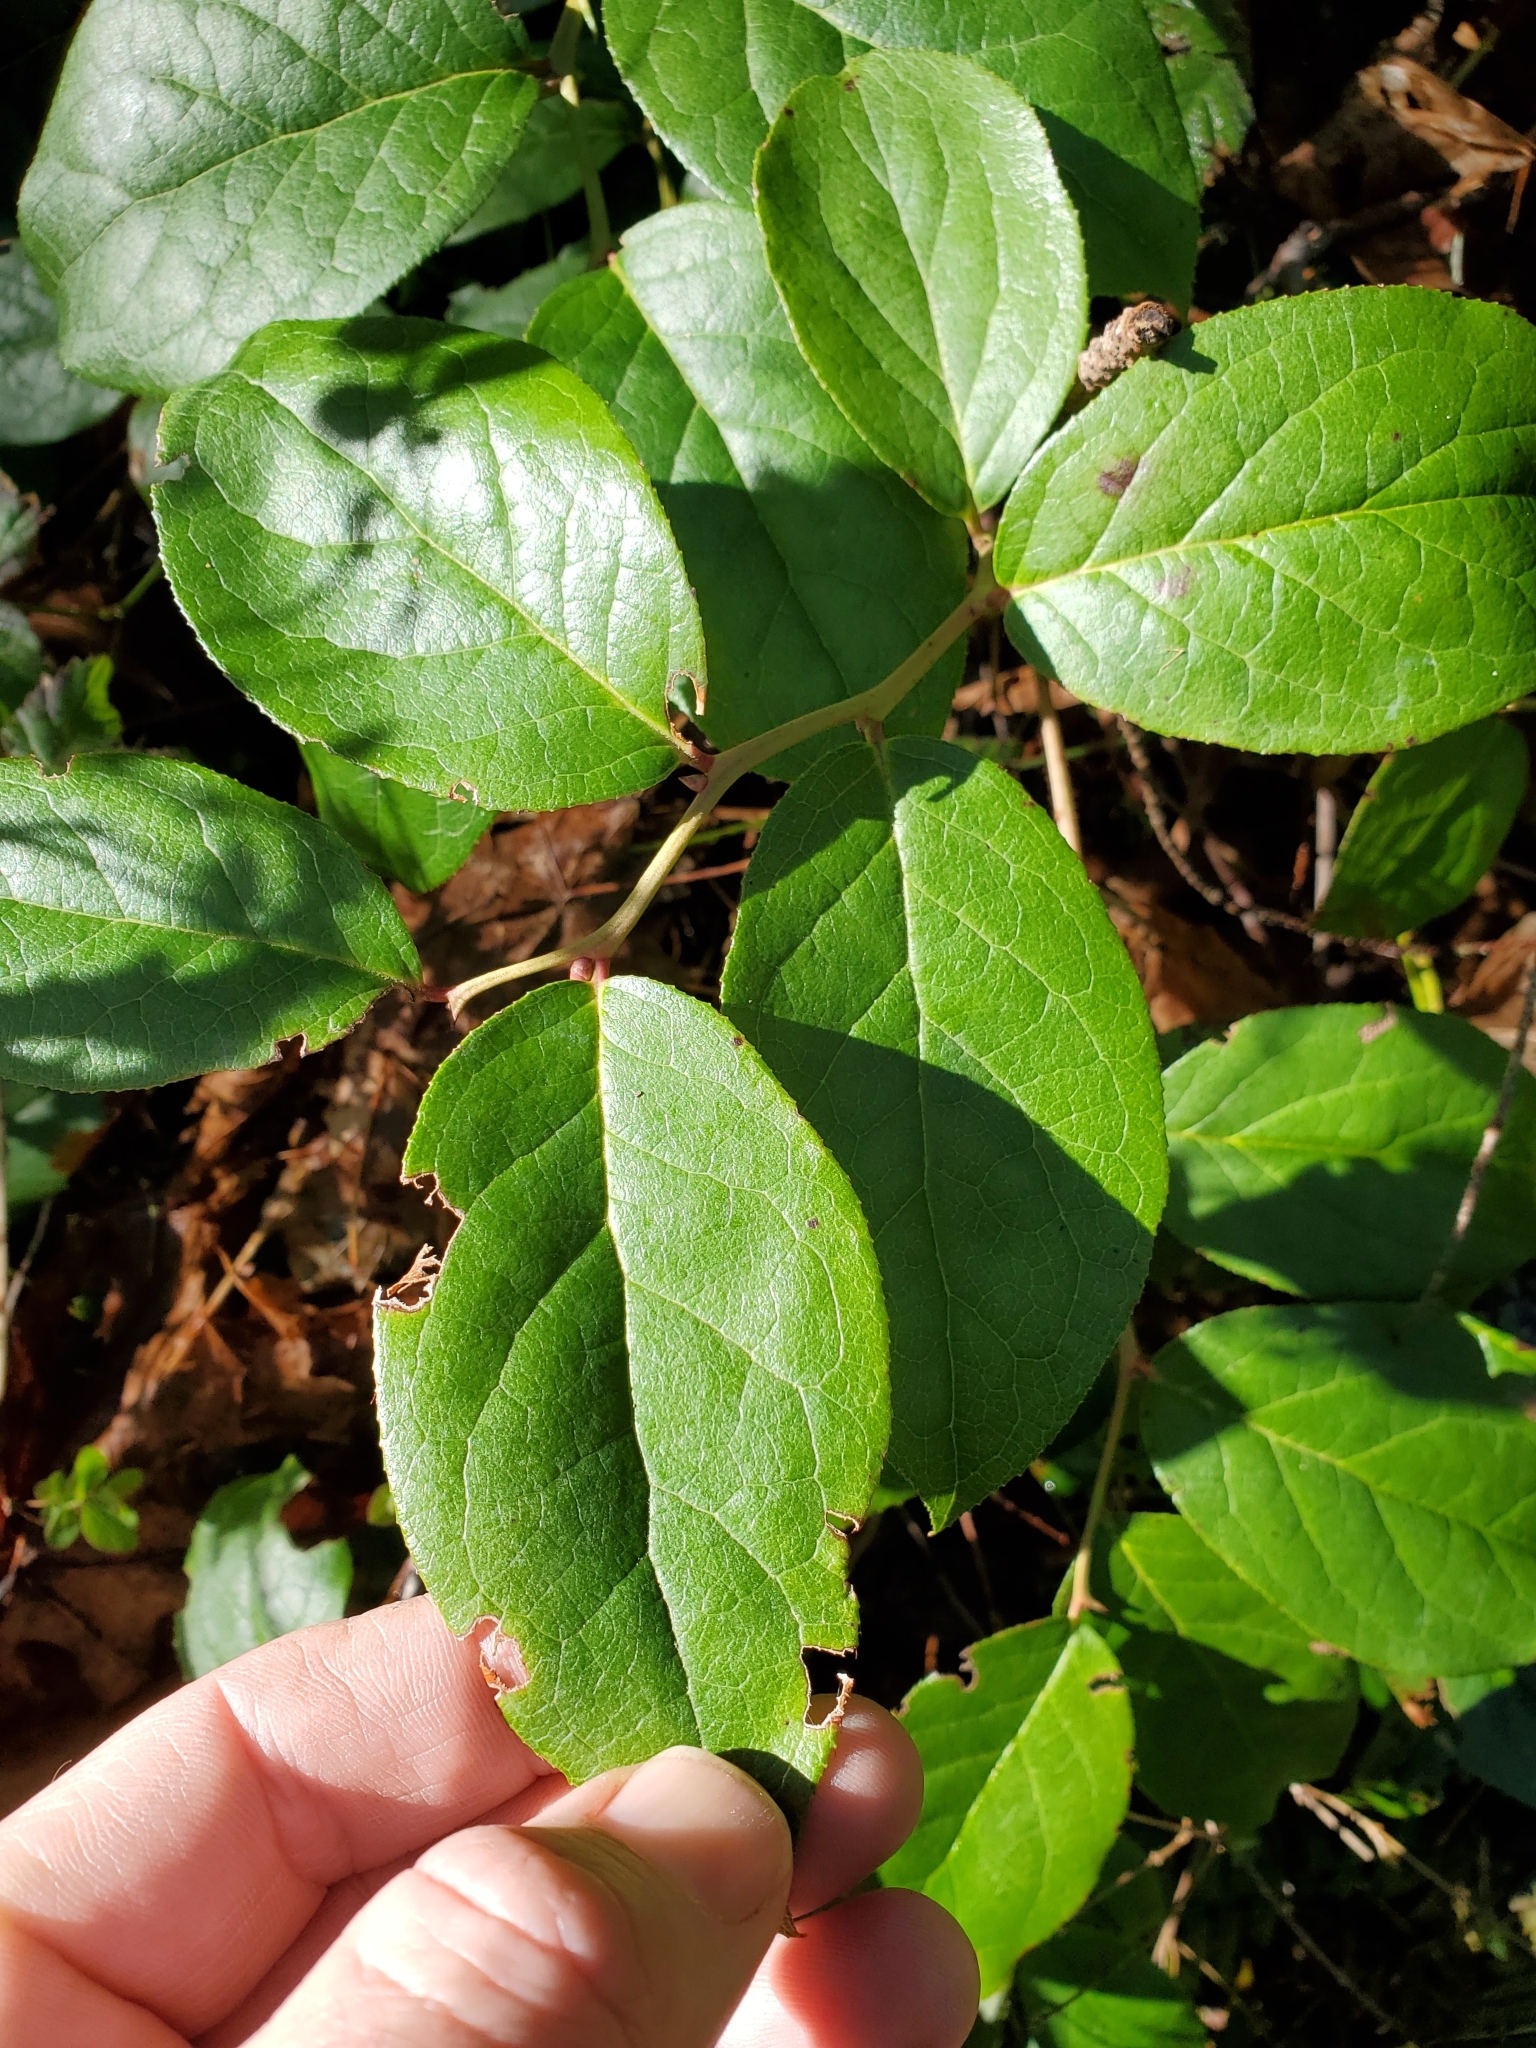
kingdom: Plantae
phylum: Tracheophyta
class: Magnoliopsida
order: Ericales
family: Ericaceae
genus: Gaultheria
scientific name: Gaultheria shallon
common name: Shallon
